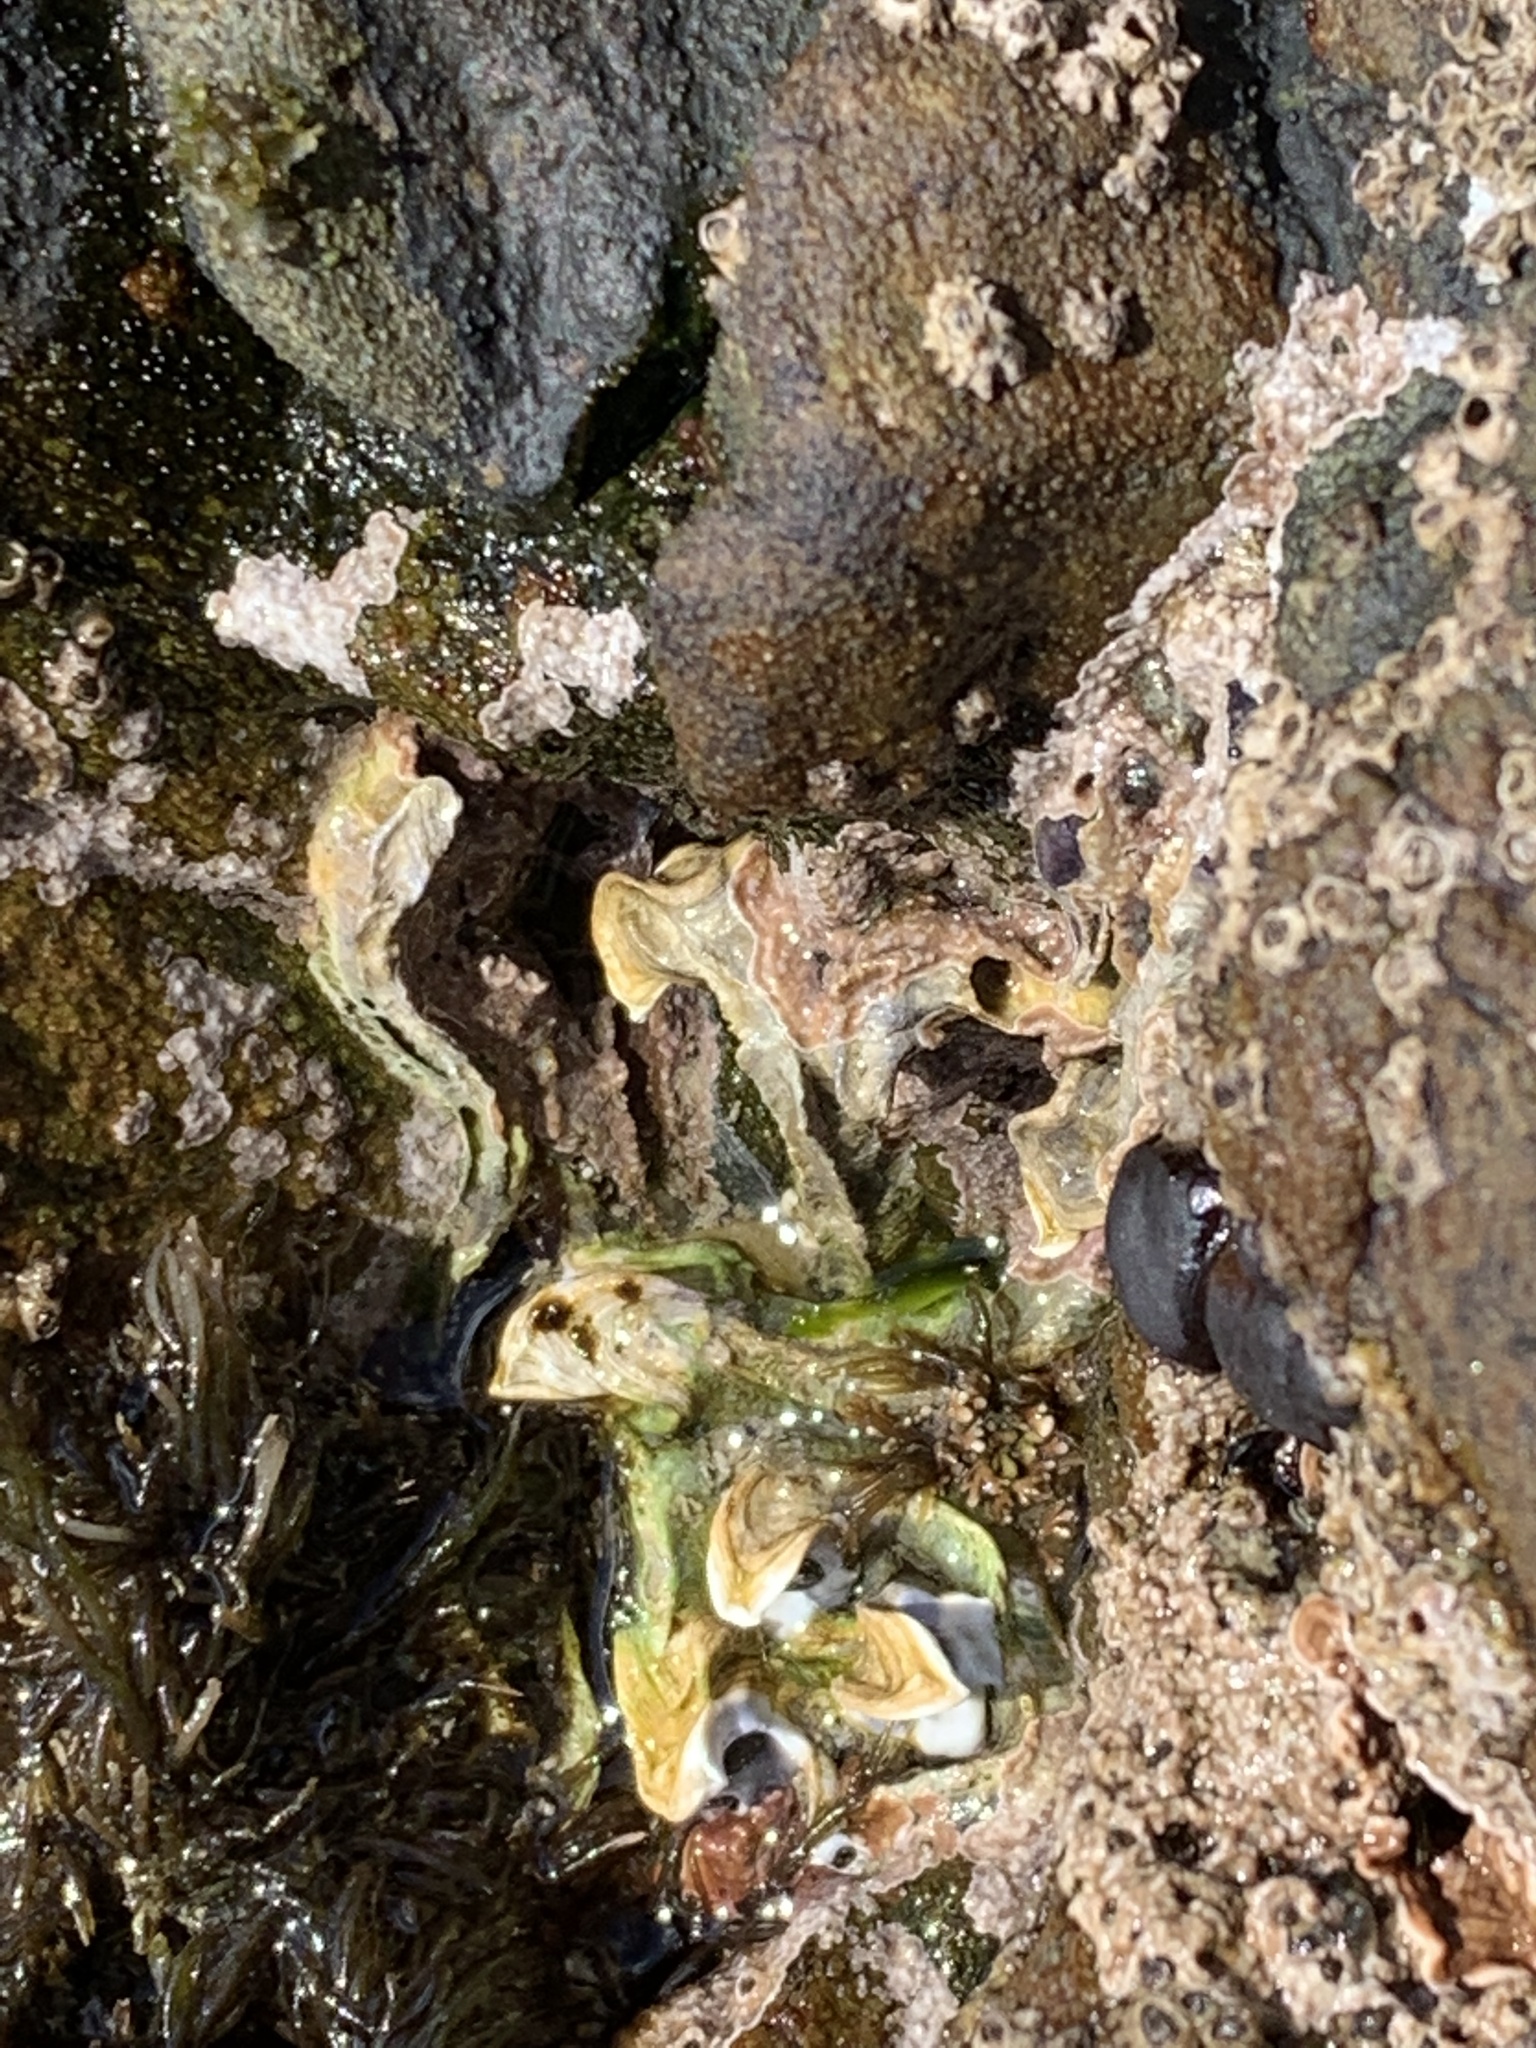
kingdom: Animalia
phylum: Annelida
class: Polychaeta
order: Sabellida
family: Serpulidae
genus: Spirobranchus
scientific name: Spirobranchus cariniferus
